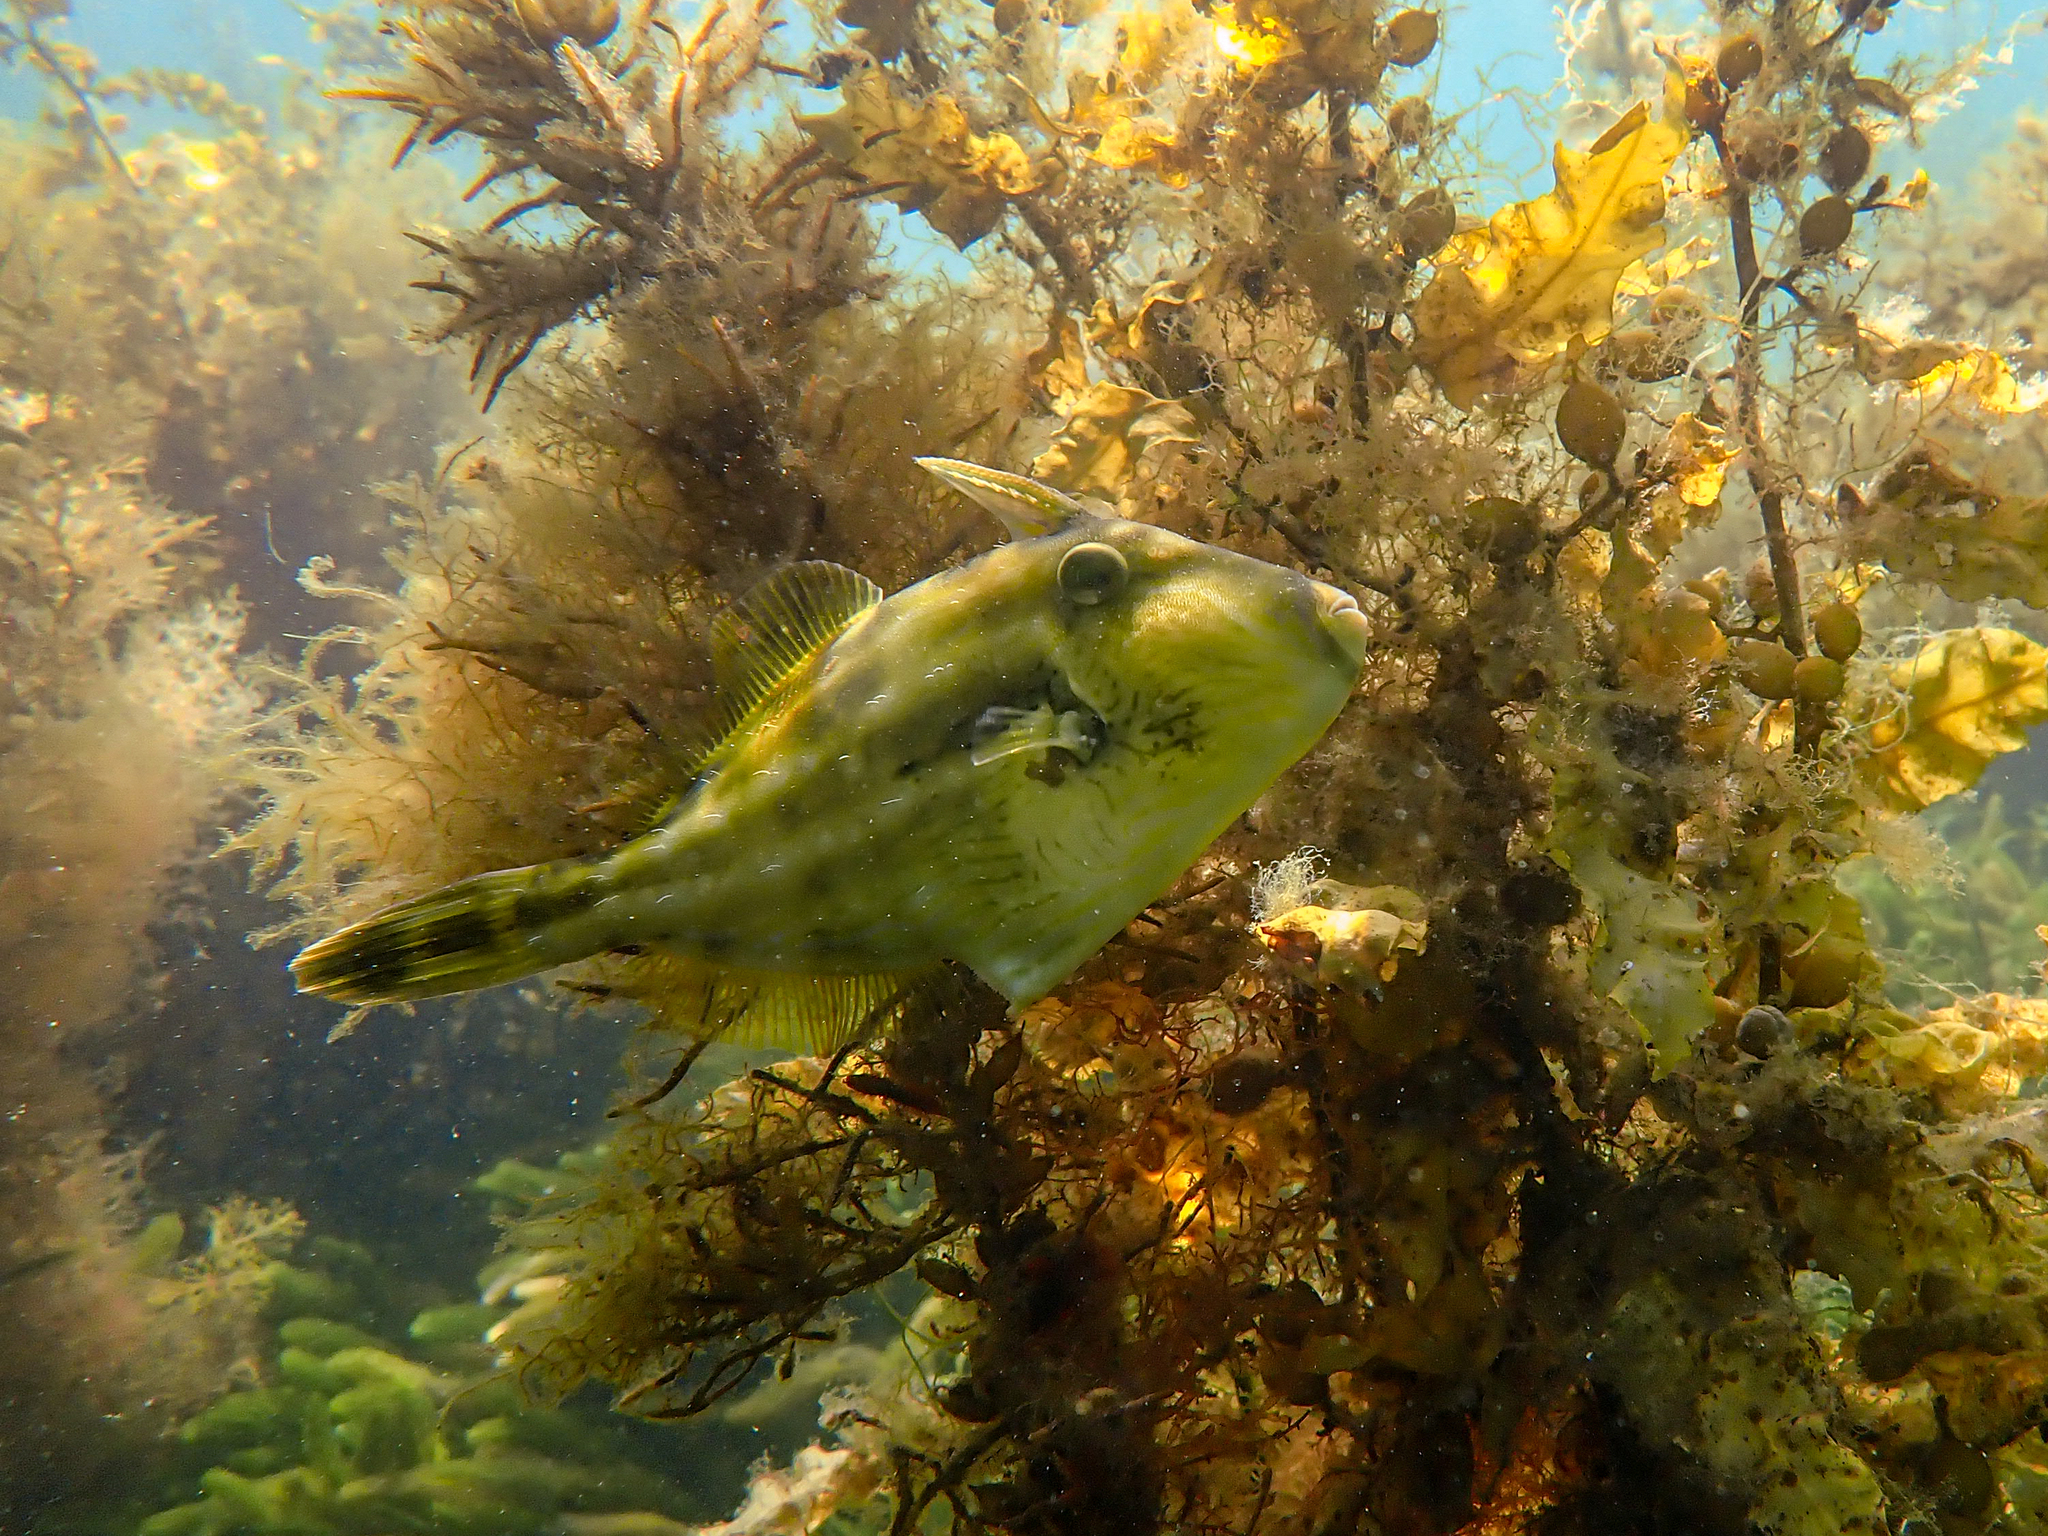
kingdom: Animalia
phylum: Chordata
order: Tetraodontiformes
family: Monacanthidae
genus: Meuschenia
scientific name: Meuschenia freycineti
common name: Freycinet's leatherjacket
